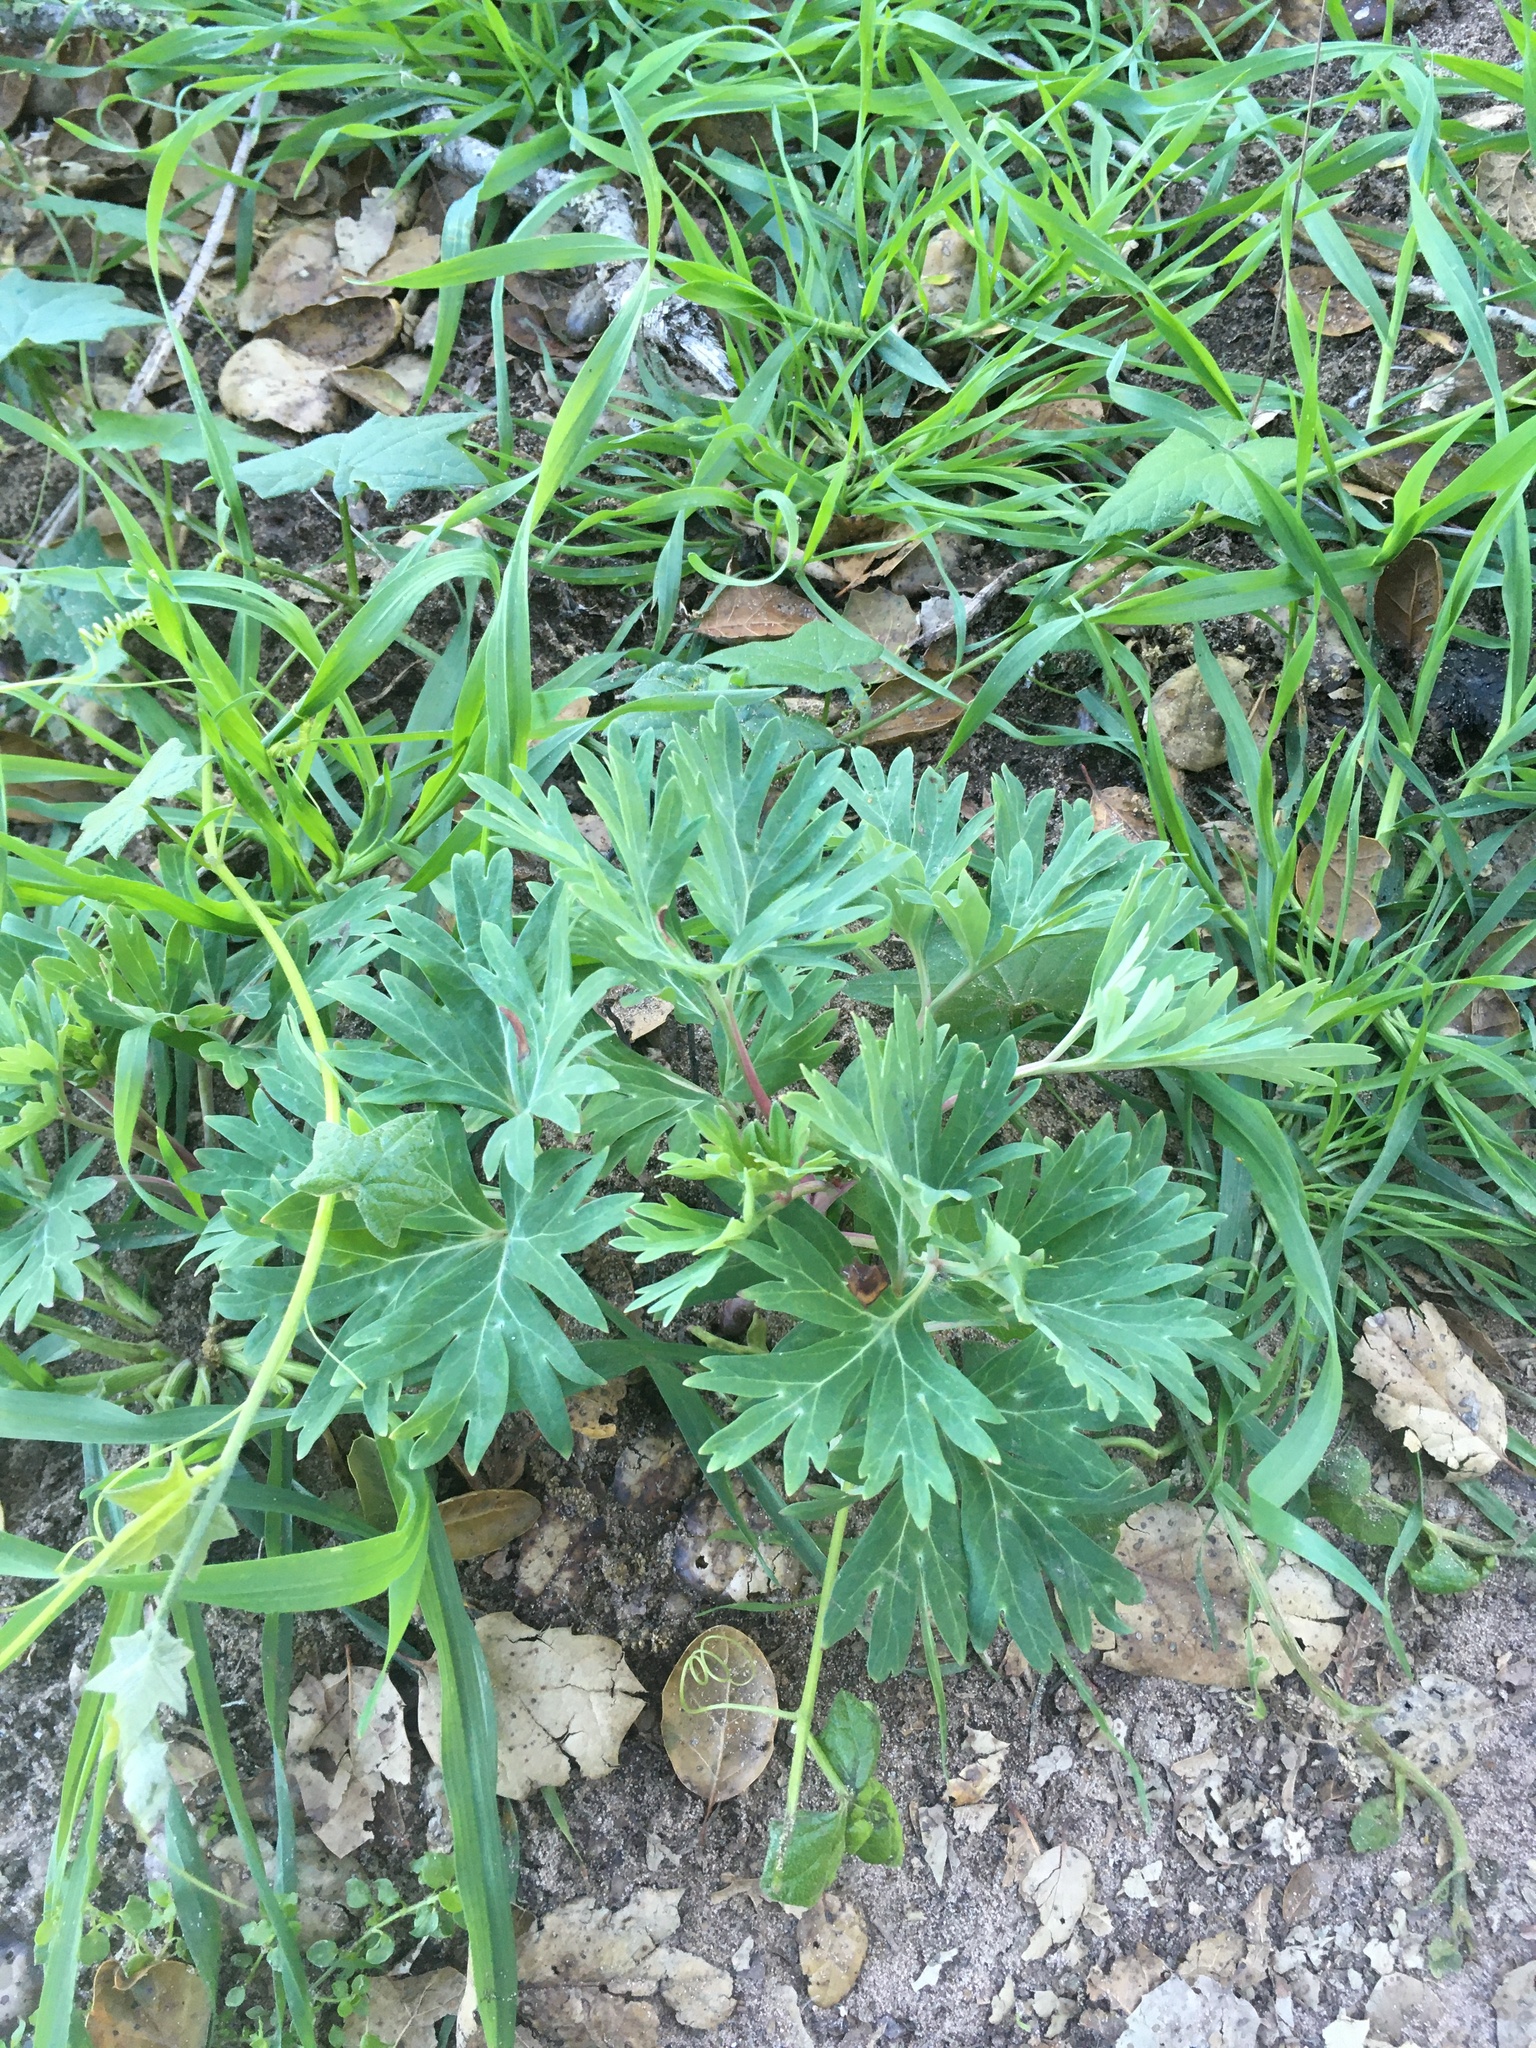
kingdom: Plantae
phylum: Tracheophyta
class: Magnoliopsida
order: Saxifragales
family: Paeoniaceae
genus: Paeonia
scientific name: Paeonia californica
